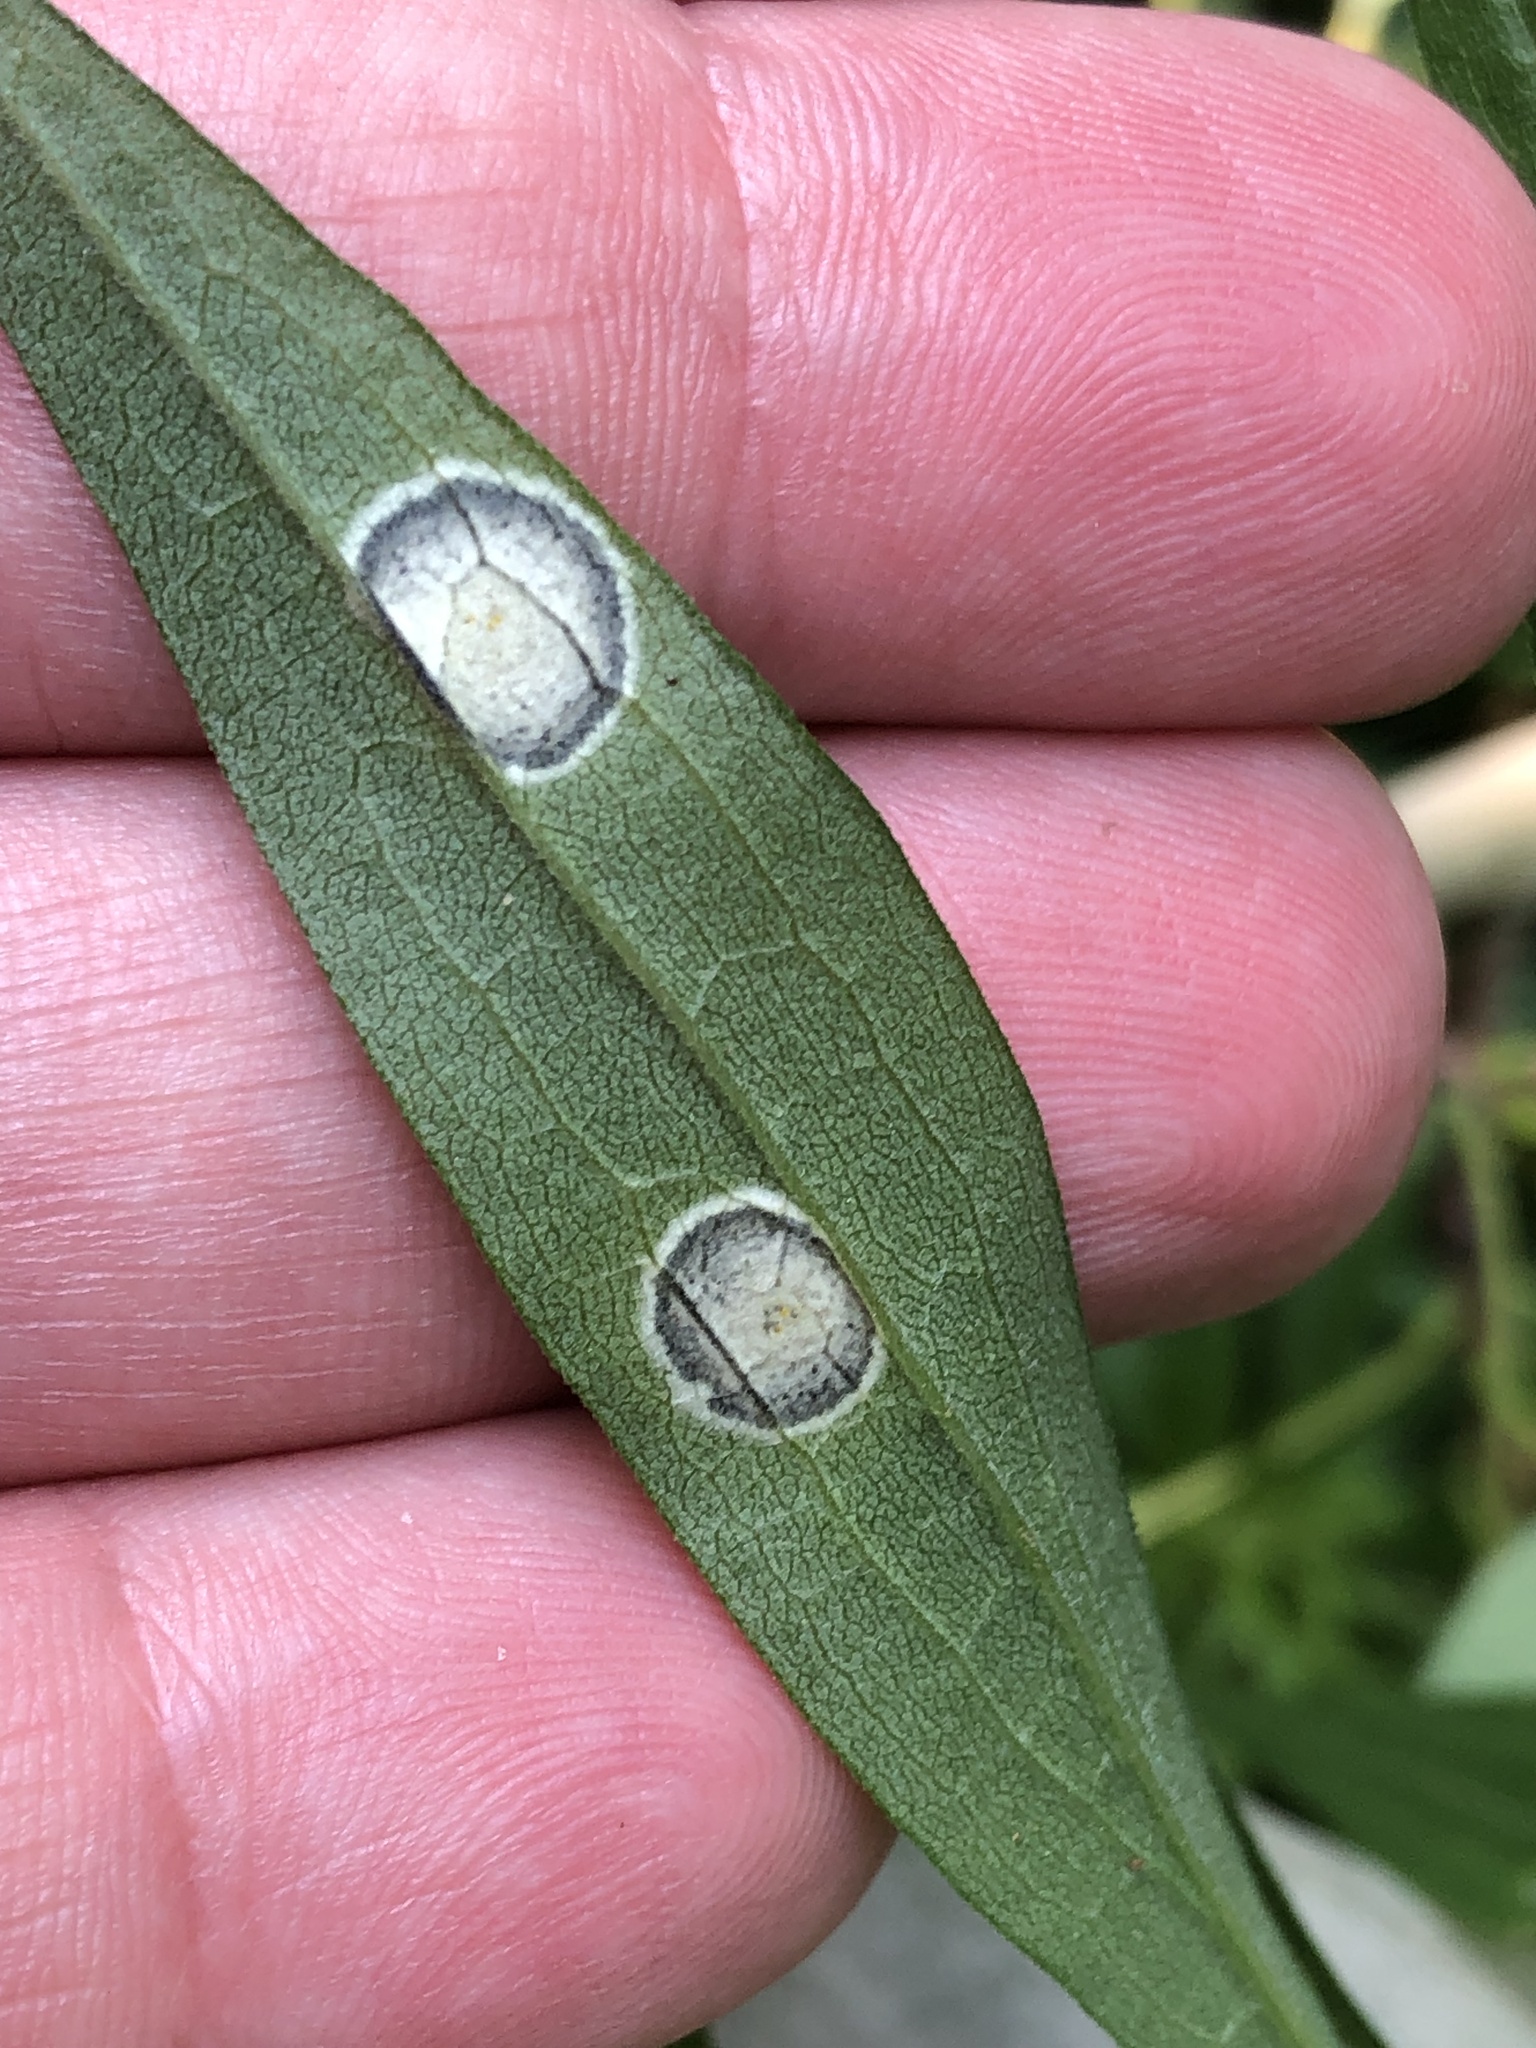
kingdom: Animalia
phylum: Arthropoda
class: Insecta
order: Diptera
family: Cecidomyiidae
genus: Asteromyia
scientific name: Asteromyia carbonifera
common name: Carbonifera goldenrod gall midge
